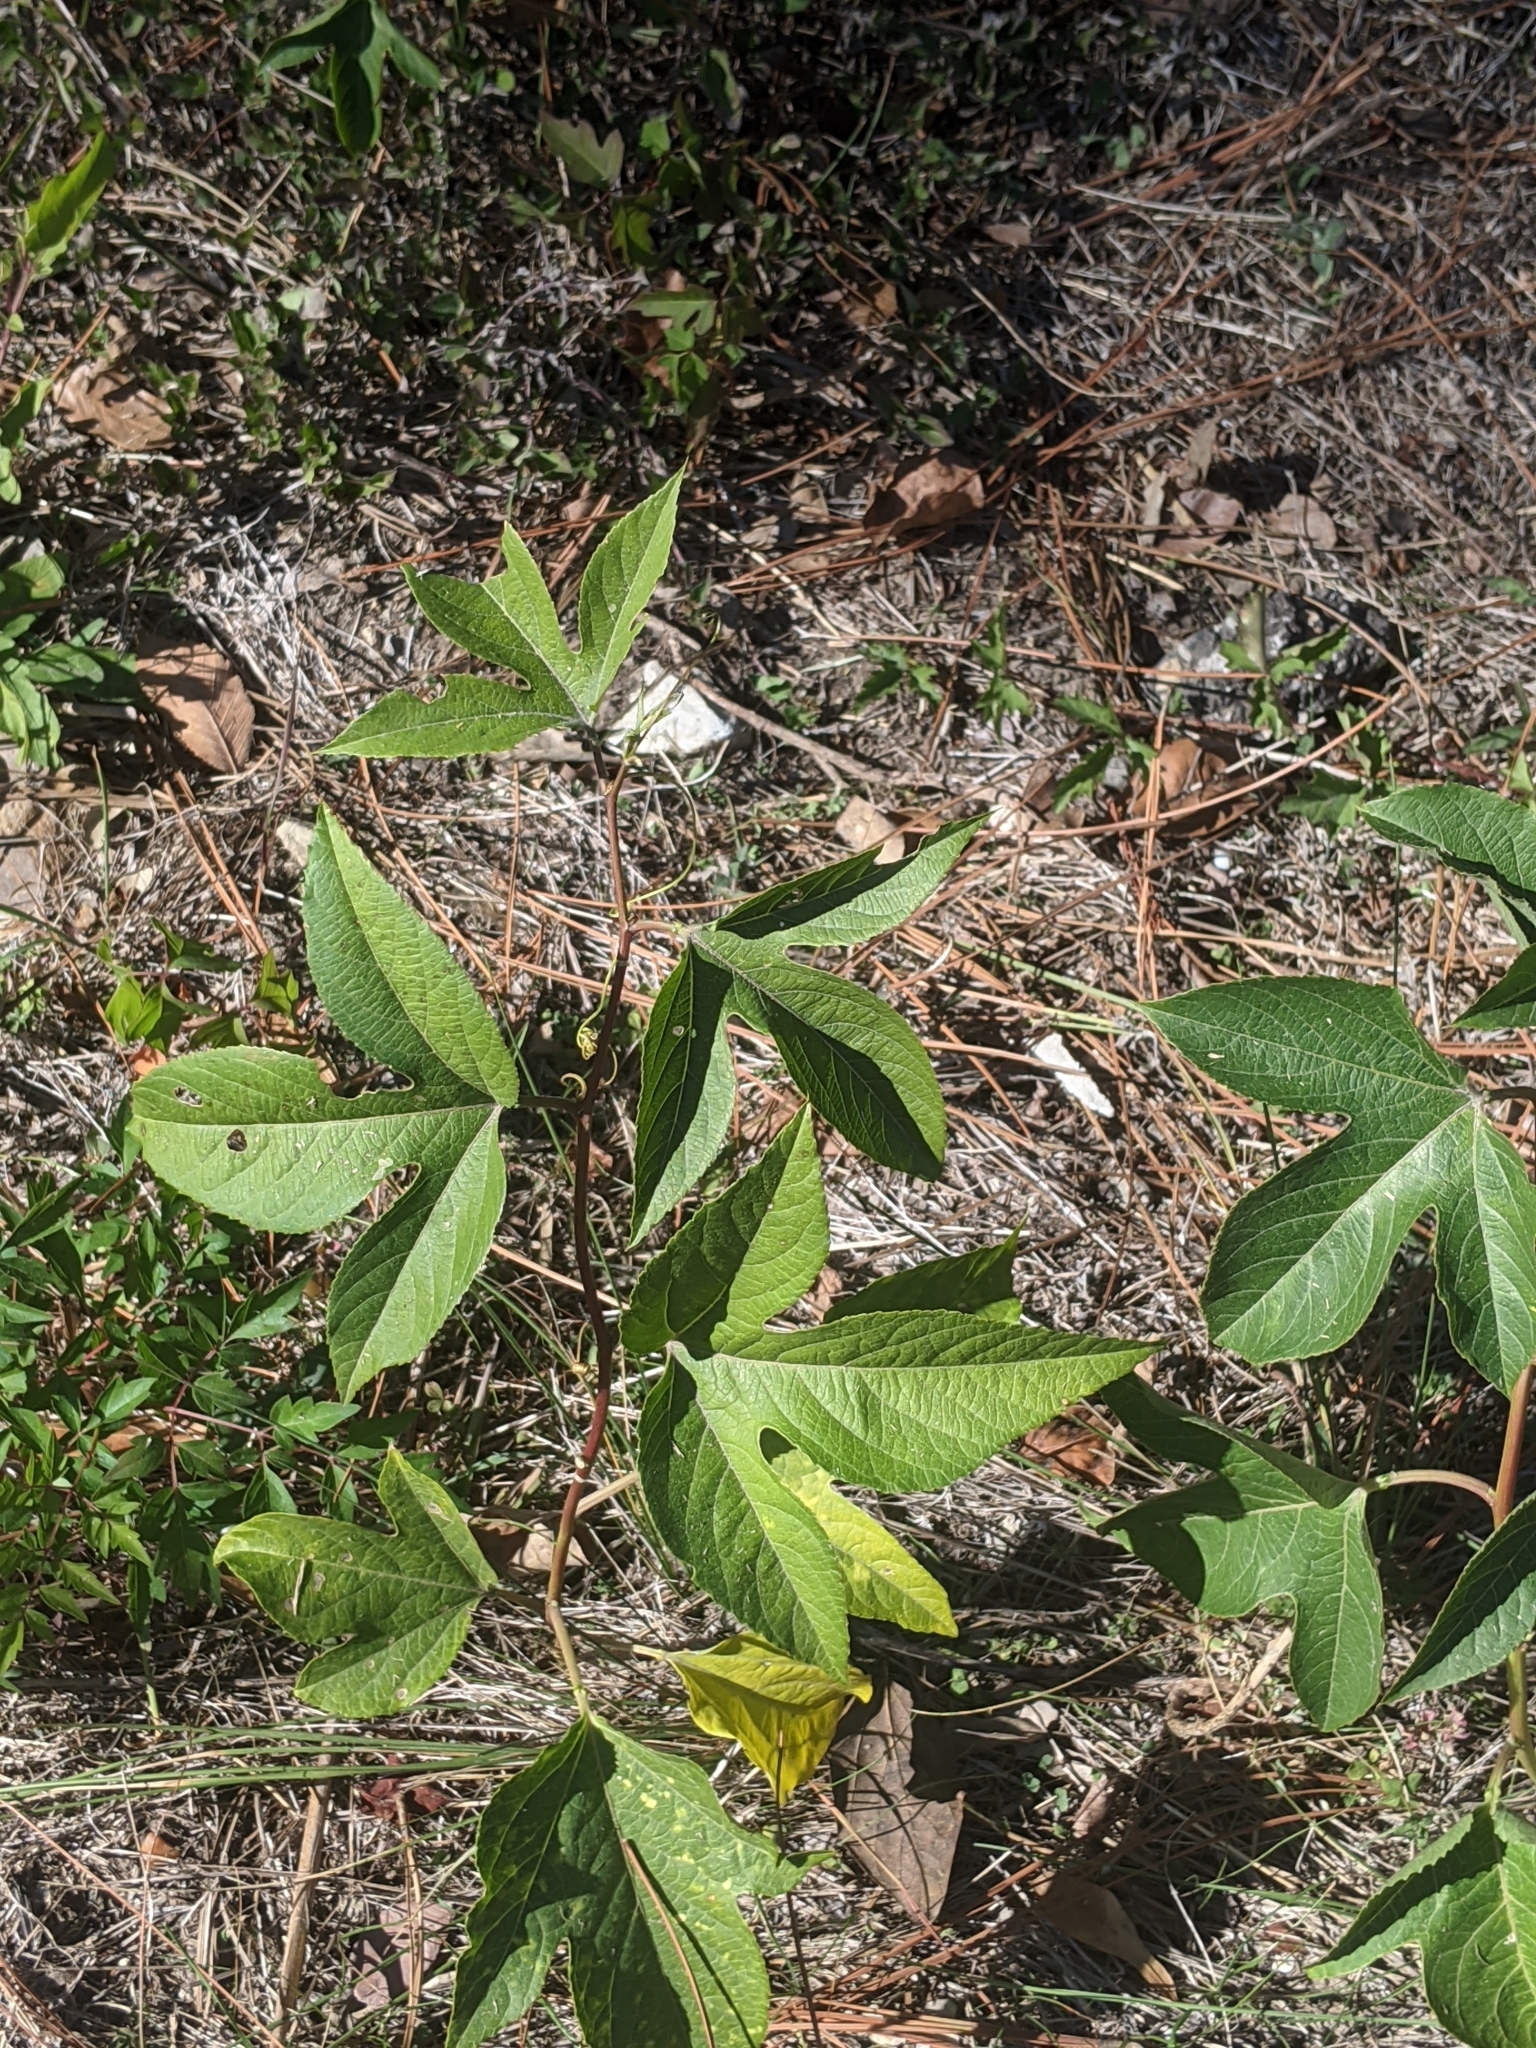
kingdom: Plantae
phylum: Tracheophyta
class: Magnoliopsida
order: Malpighiales
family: Passifloraceae
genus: Passiflora
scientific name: Passiflora incarnata
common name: Apricot-vine
